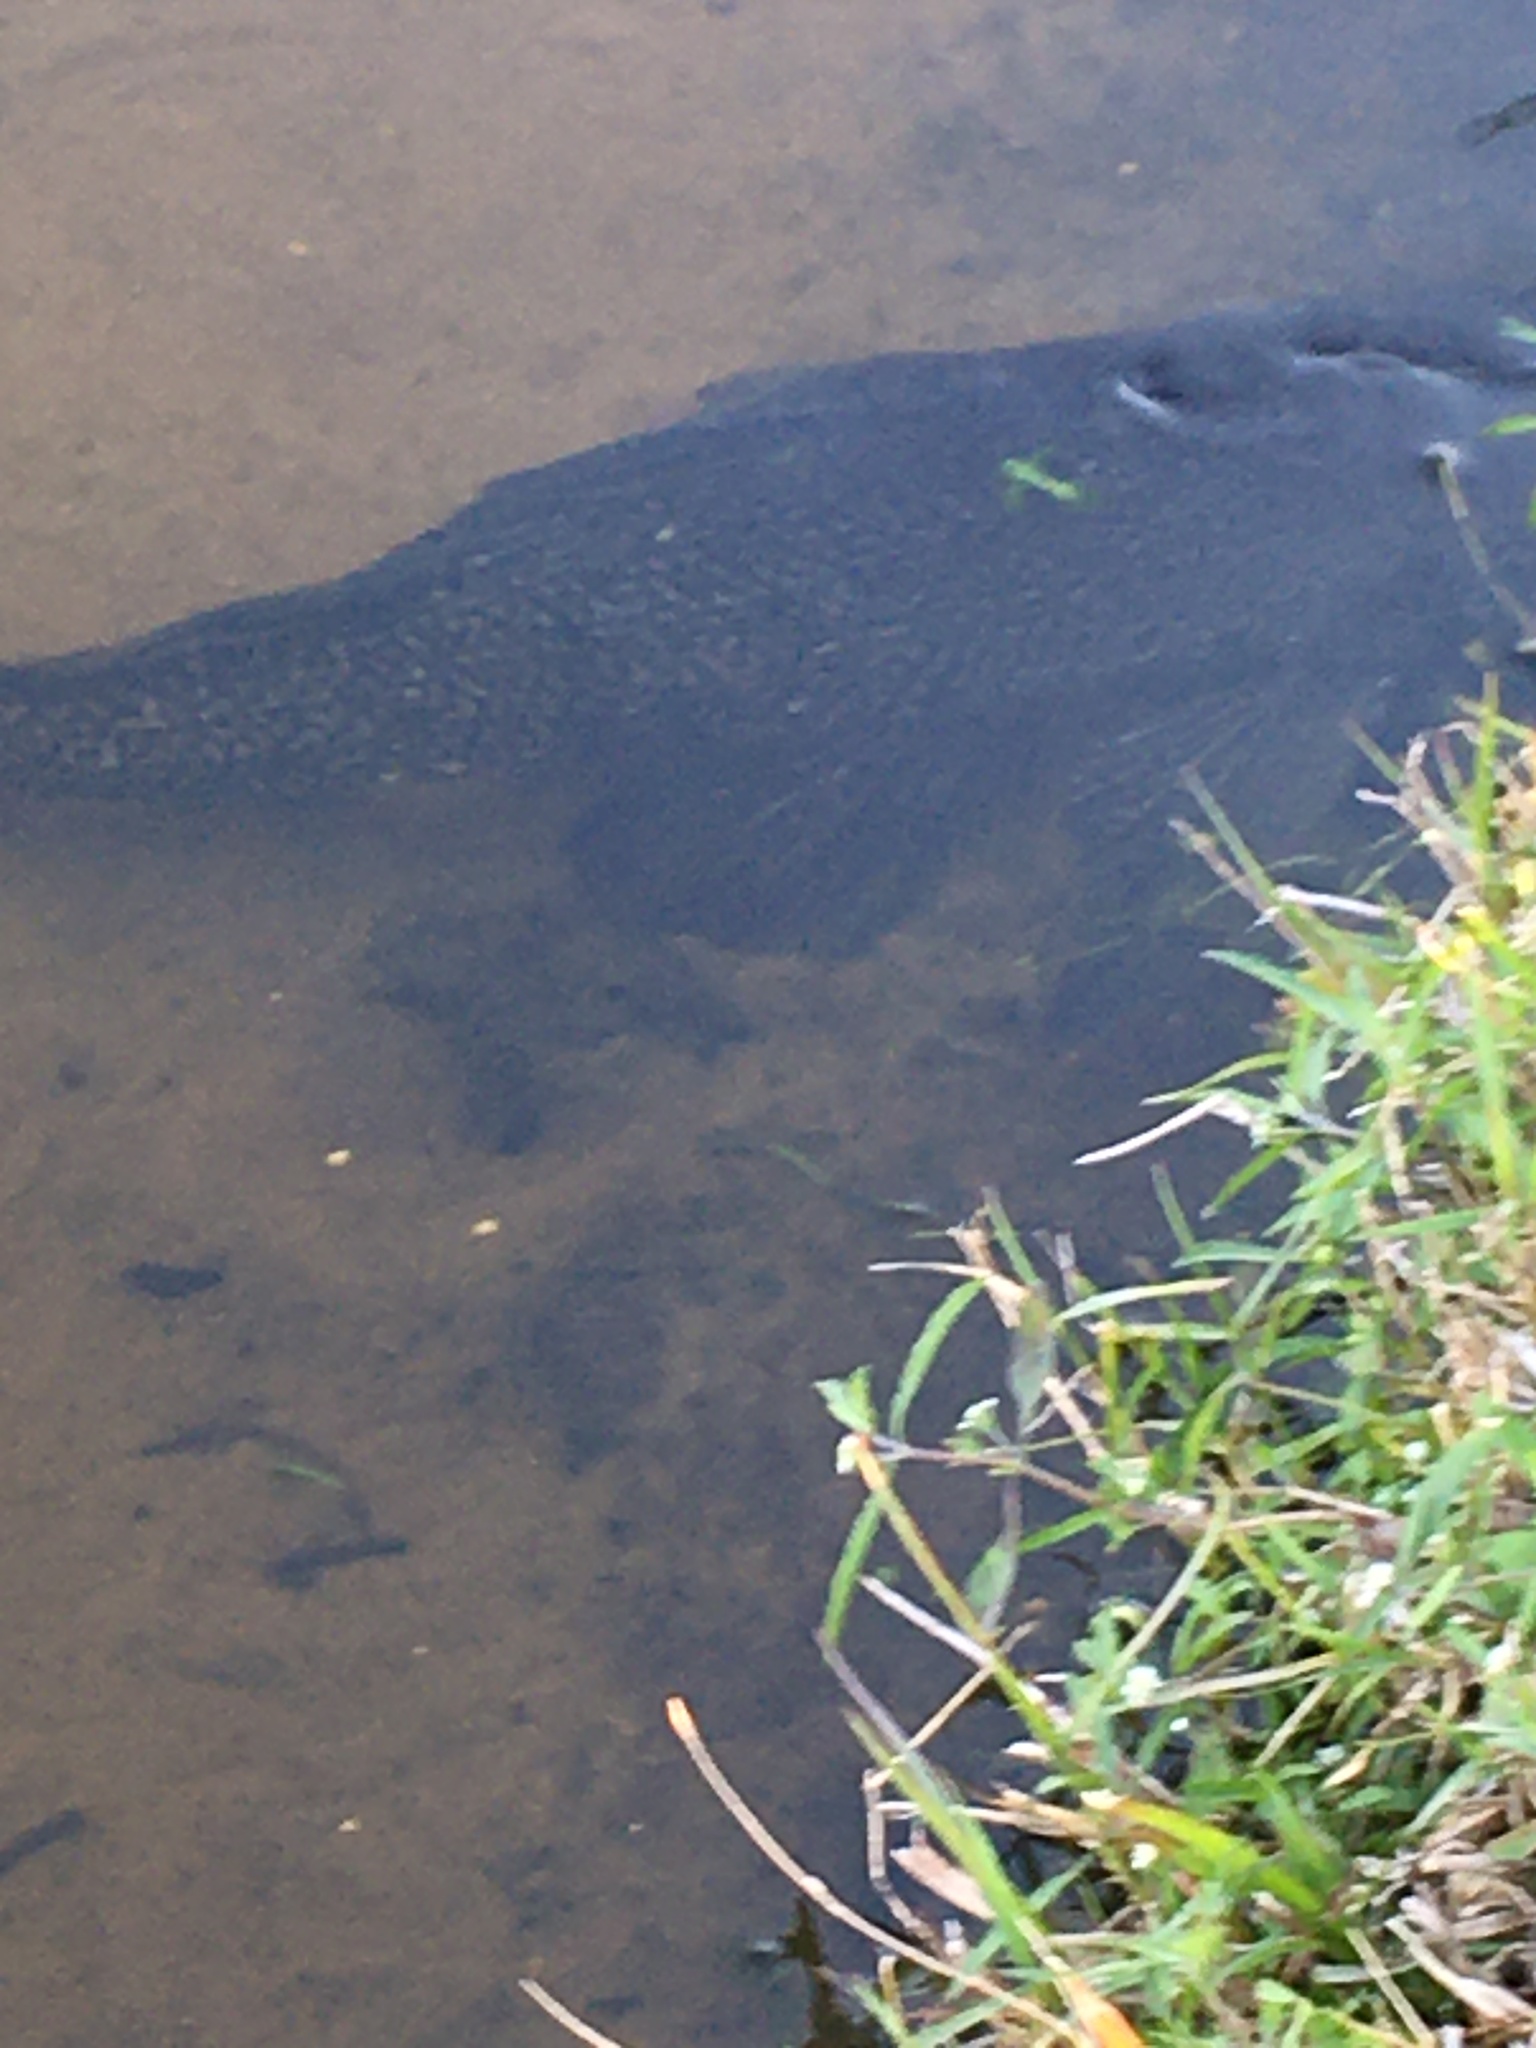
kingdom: Animalia
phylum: Chordata
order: Siluriformes
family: Loricariidae
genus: Pterygoplichthys
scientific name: Pterygoplichthys
